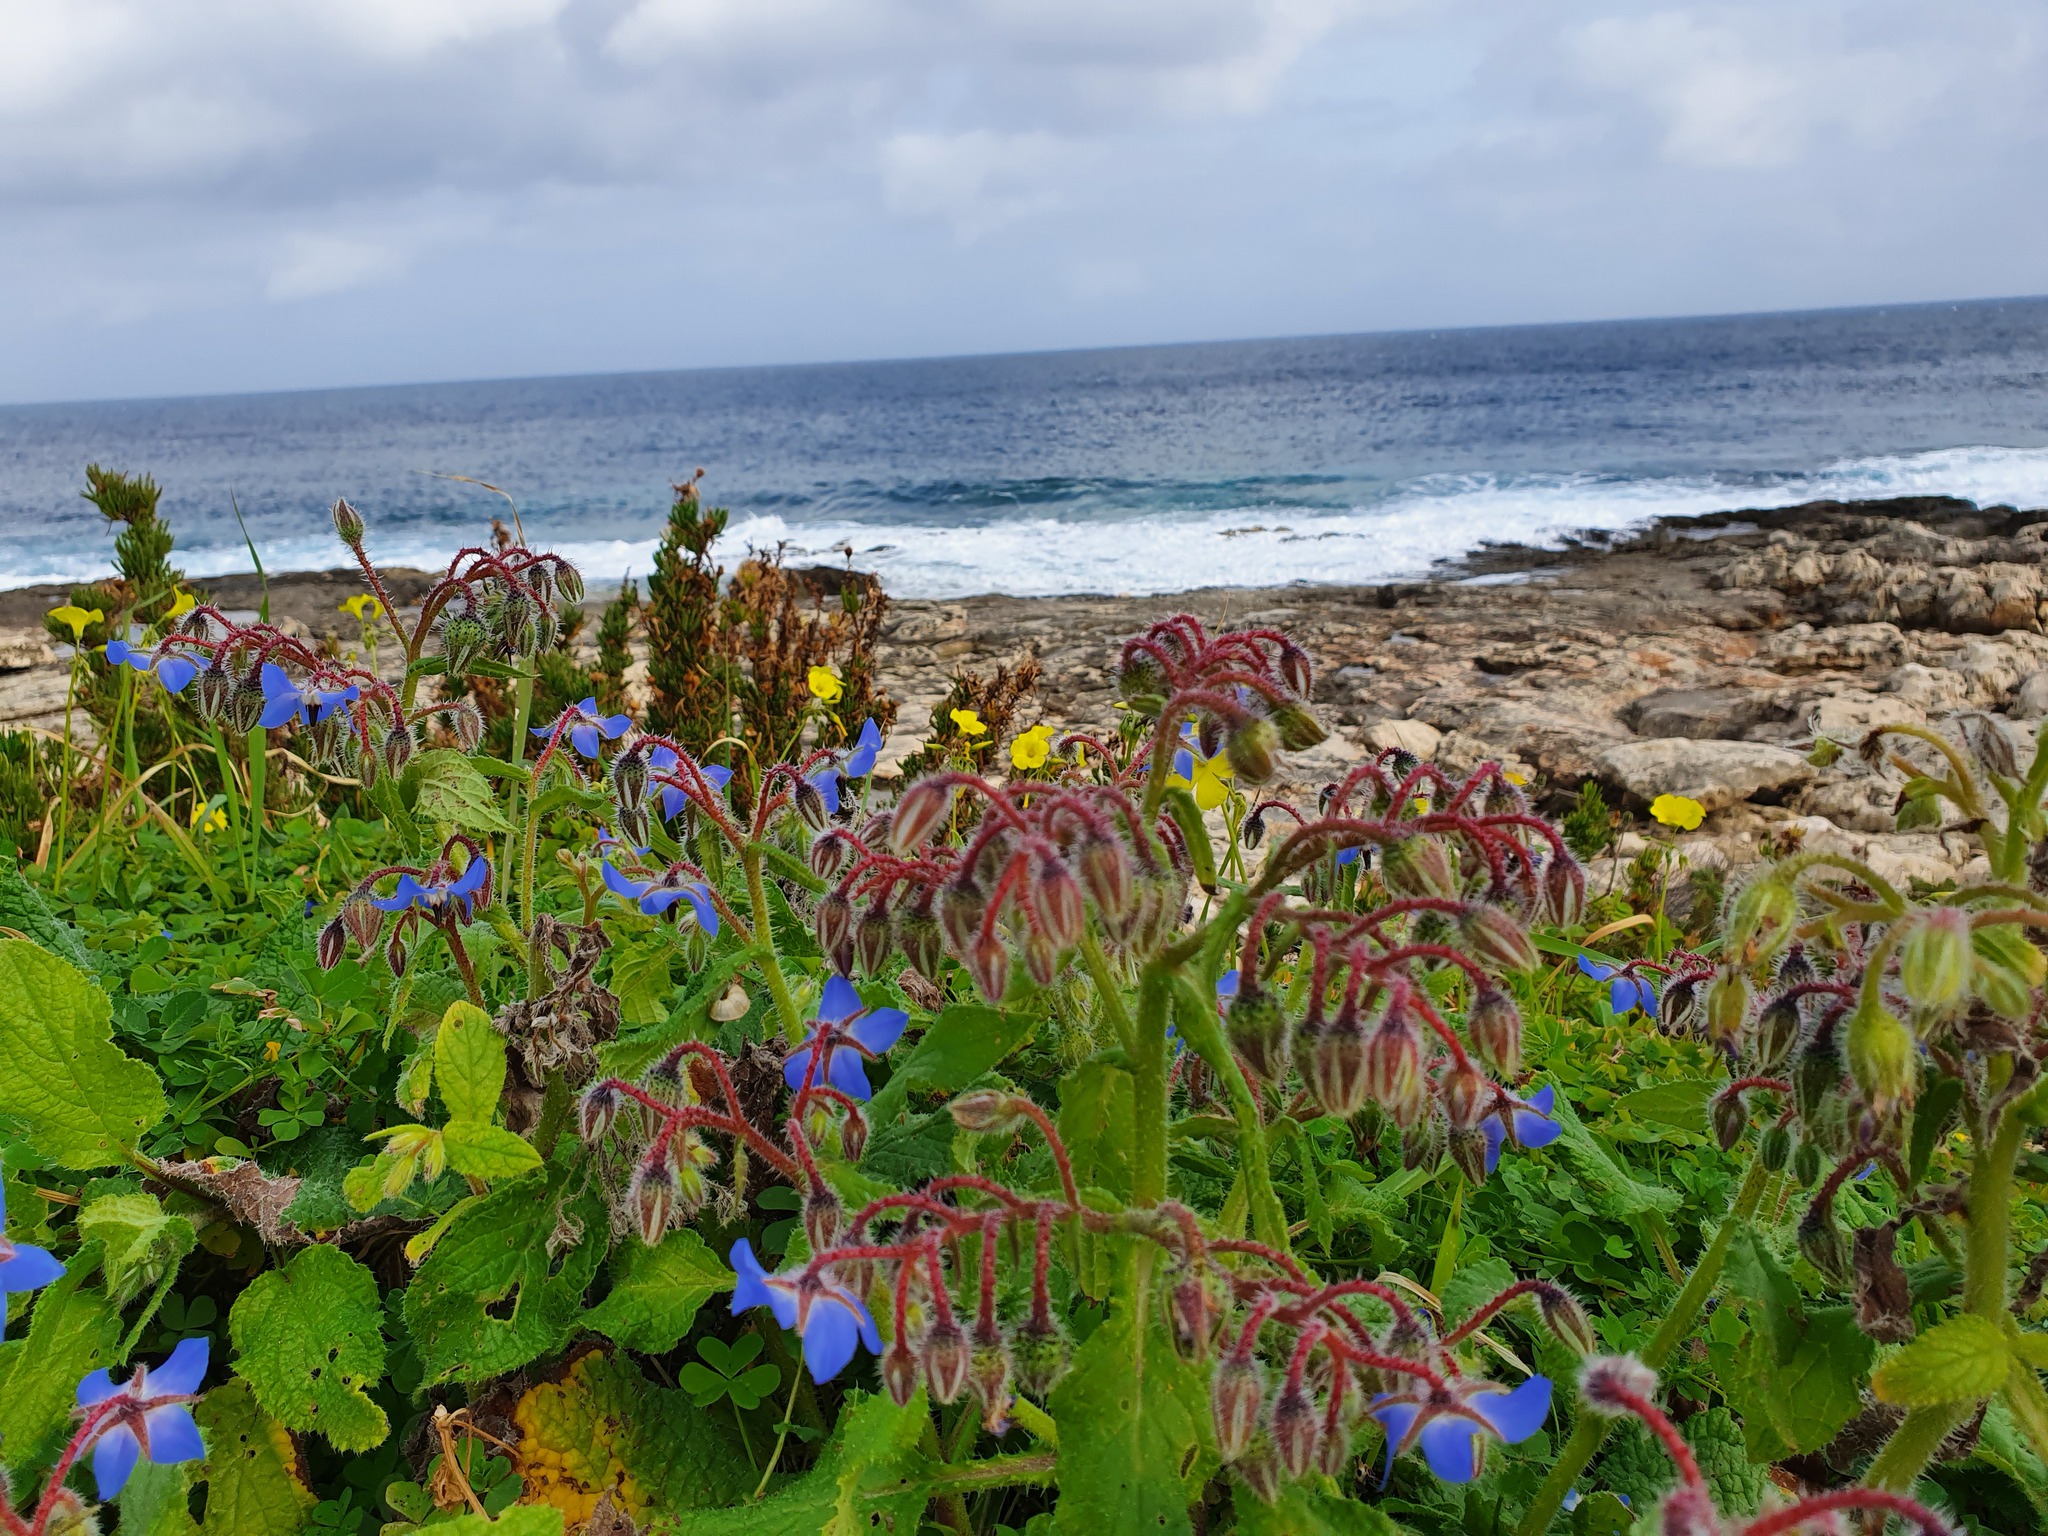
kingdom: Plantae
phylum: Tracheophyta
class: Magnoliopsida
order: Boraginales
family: Boraginaceae
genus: Borago
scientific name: Borago officinalis
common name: Borage
